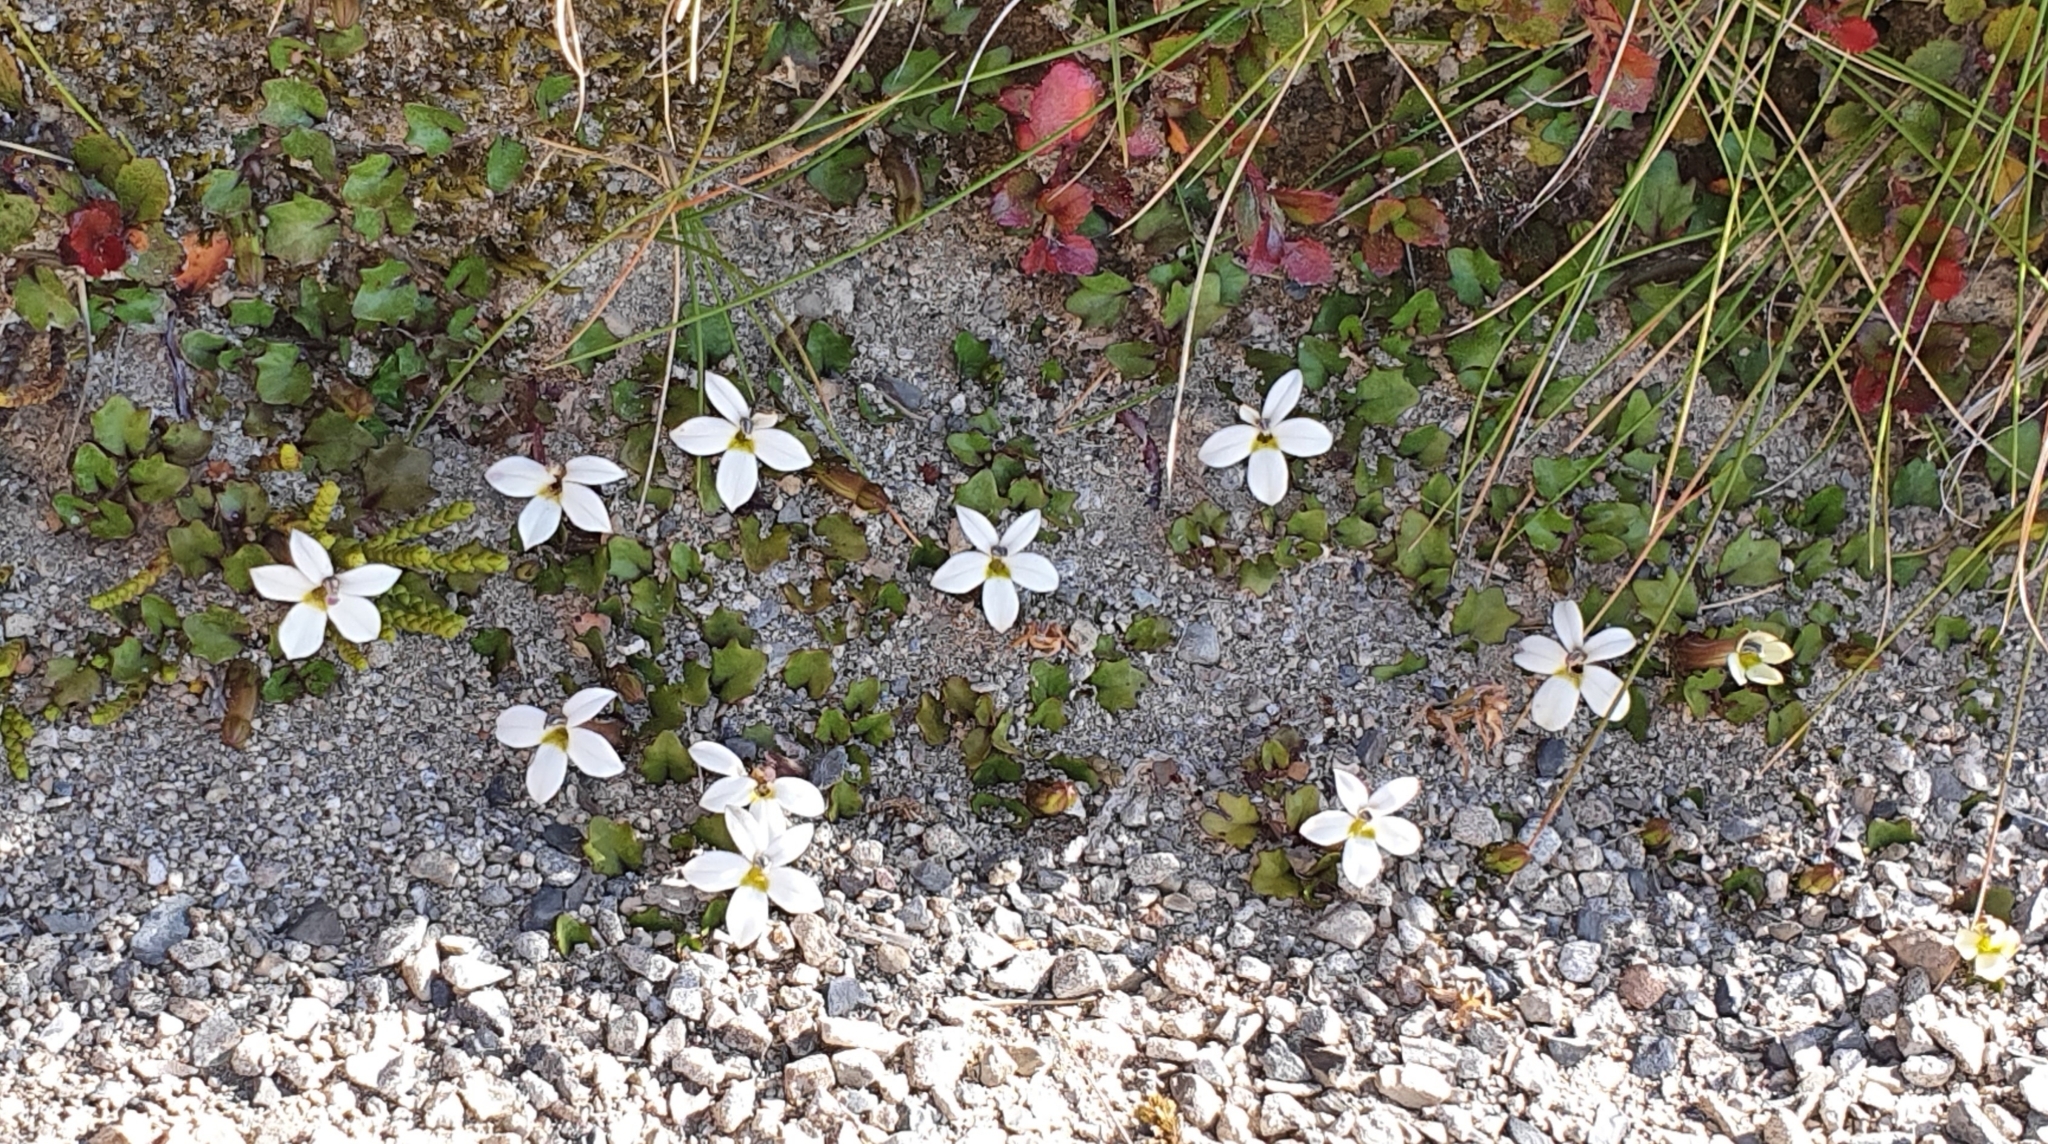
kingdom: Plantae
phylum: Tracheophyta
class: Magnoliopsida
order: Asterales
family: Campanulaceae
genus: Lobelia
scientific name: Lobelia macrodon
